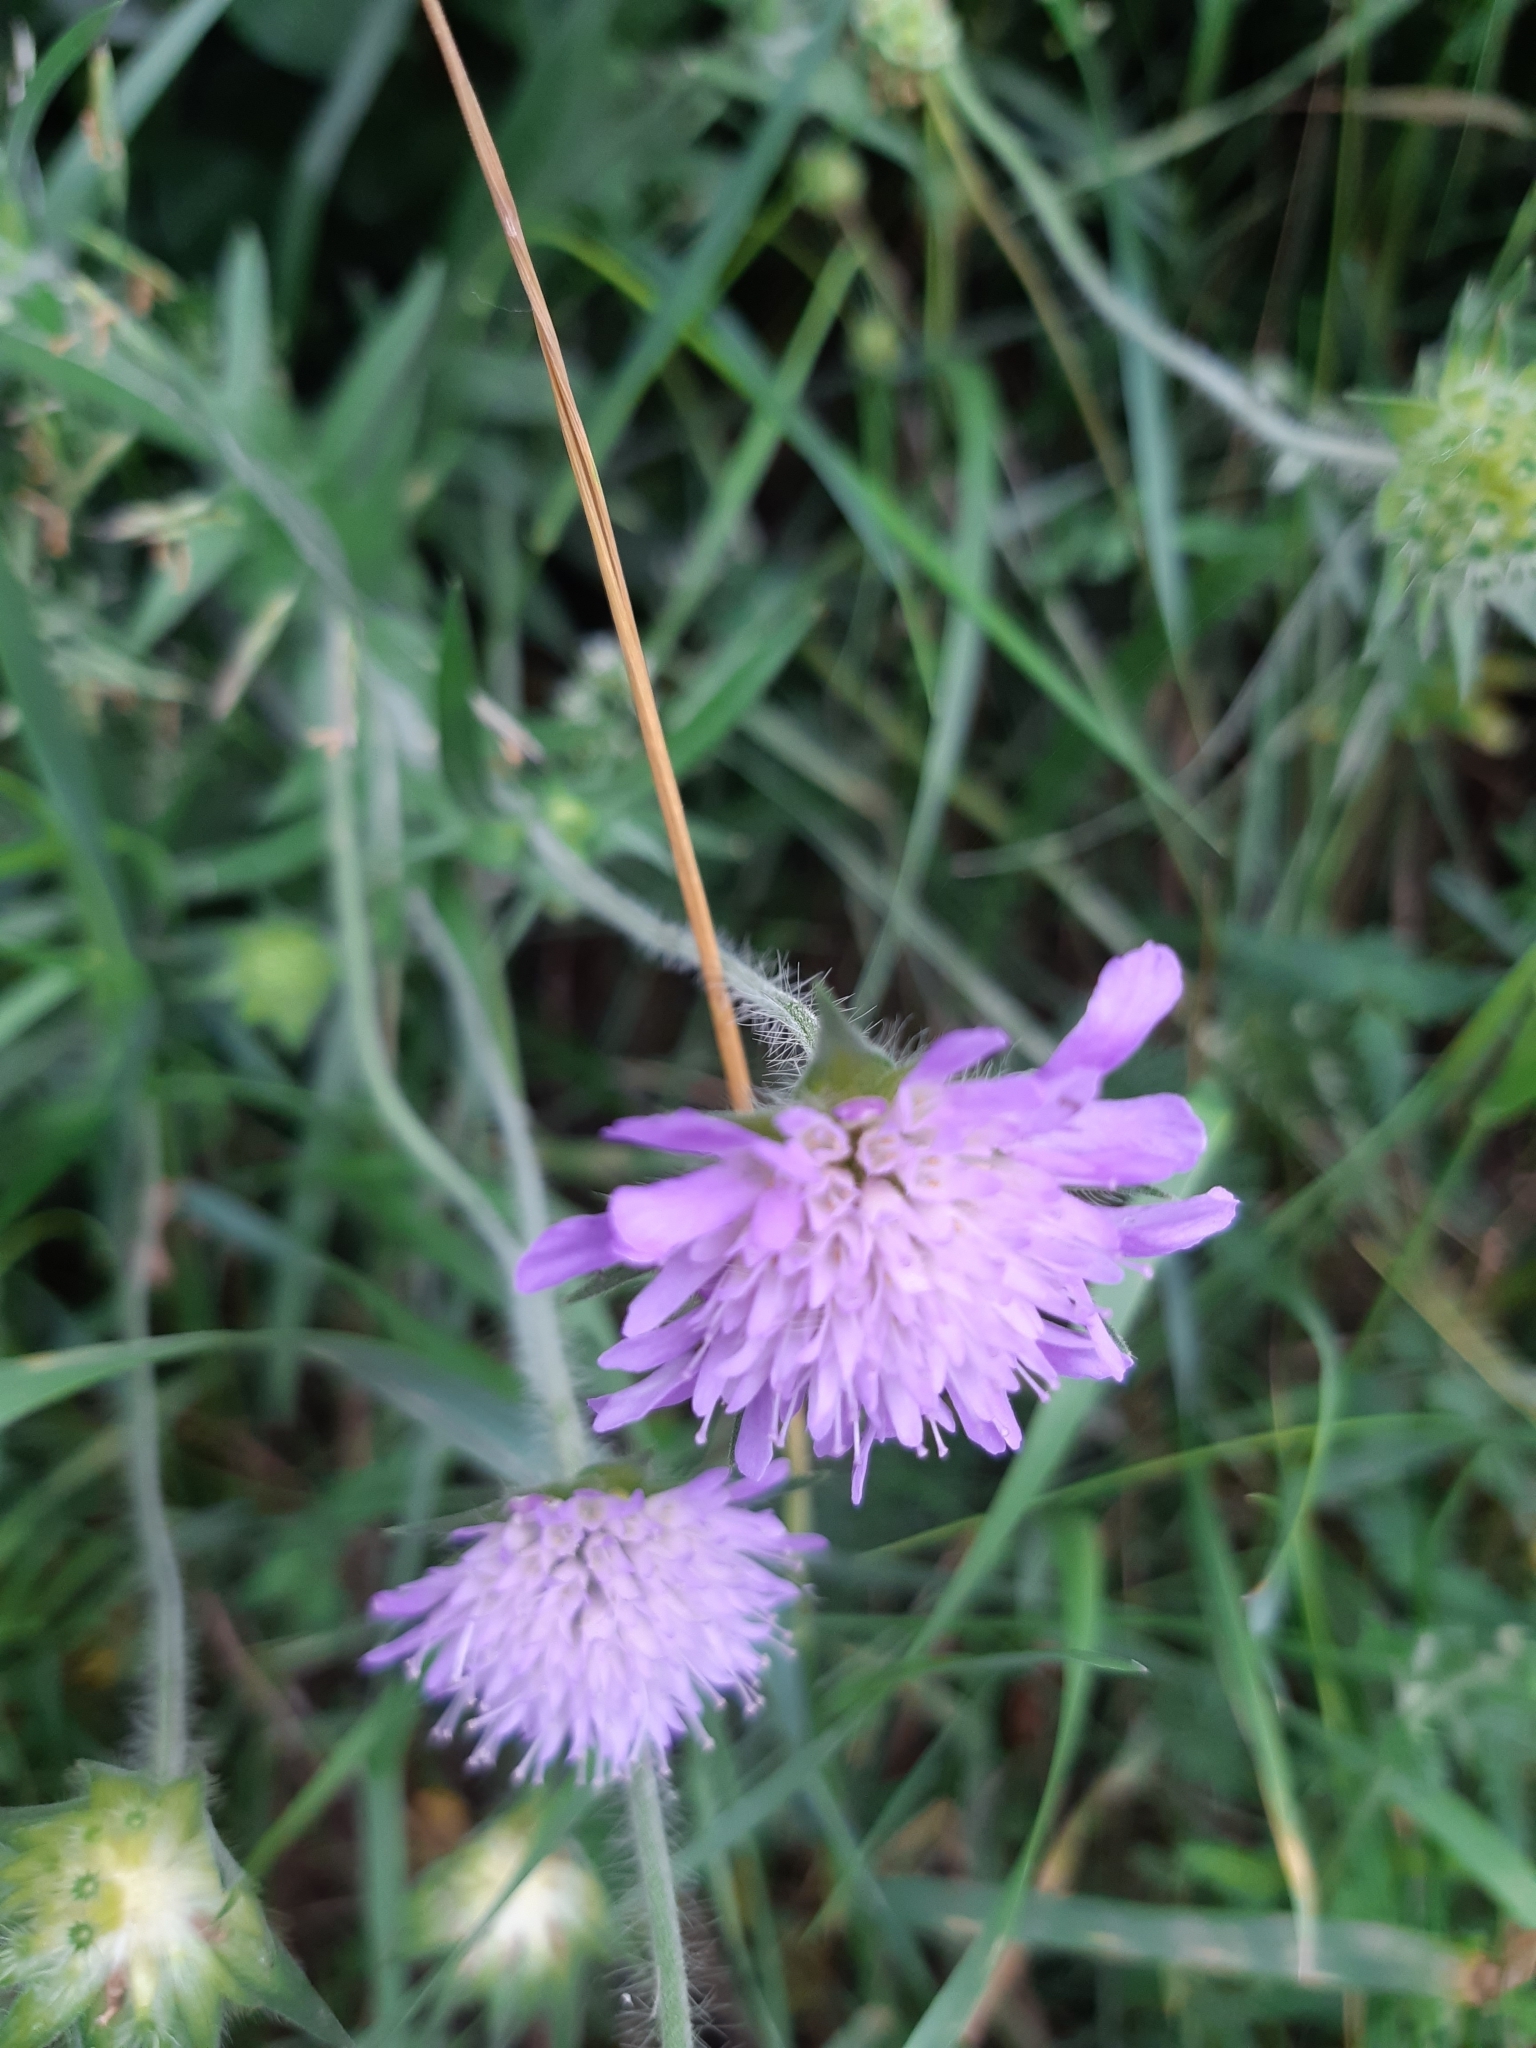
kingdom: Plantae
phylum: Tracheophyta
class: Magnoliopsida
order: Dipsacales
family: Caprifoliaceae
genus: Knautia
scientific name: Knautia arvensis
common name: Field scabiosa
